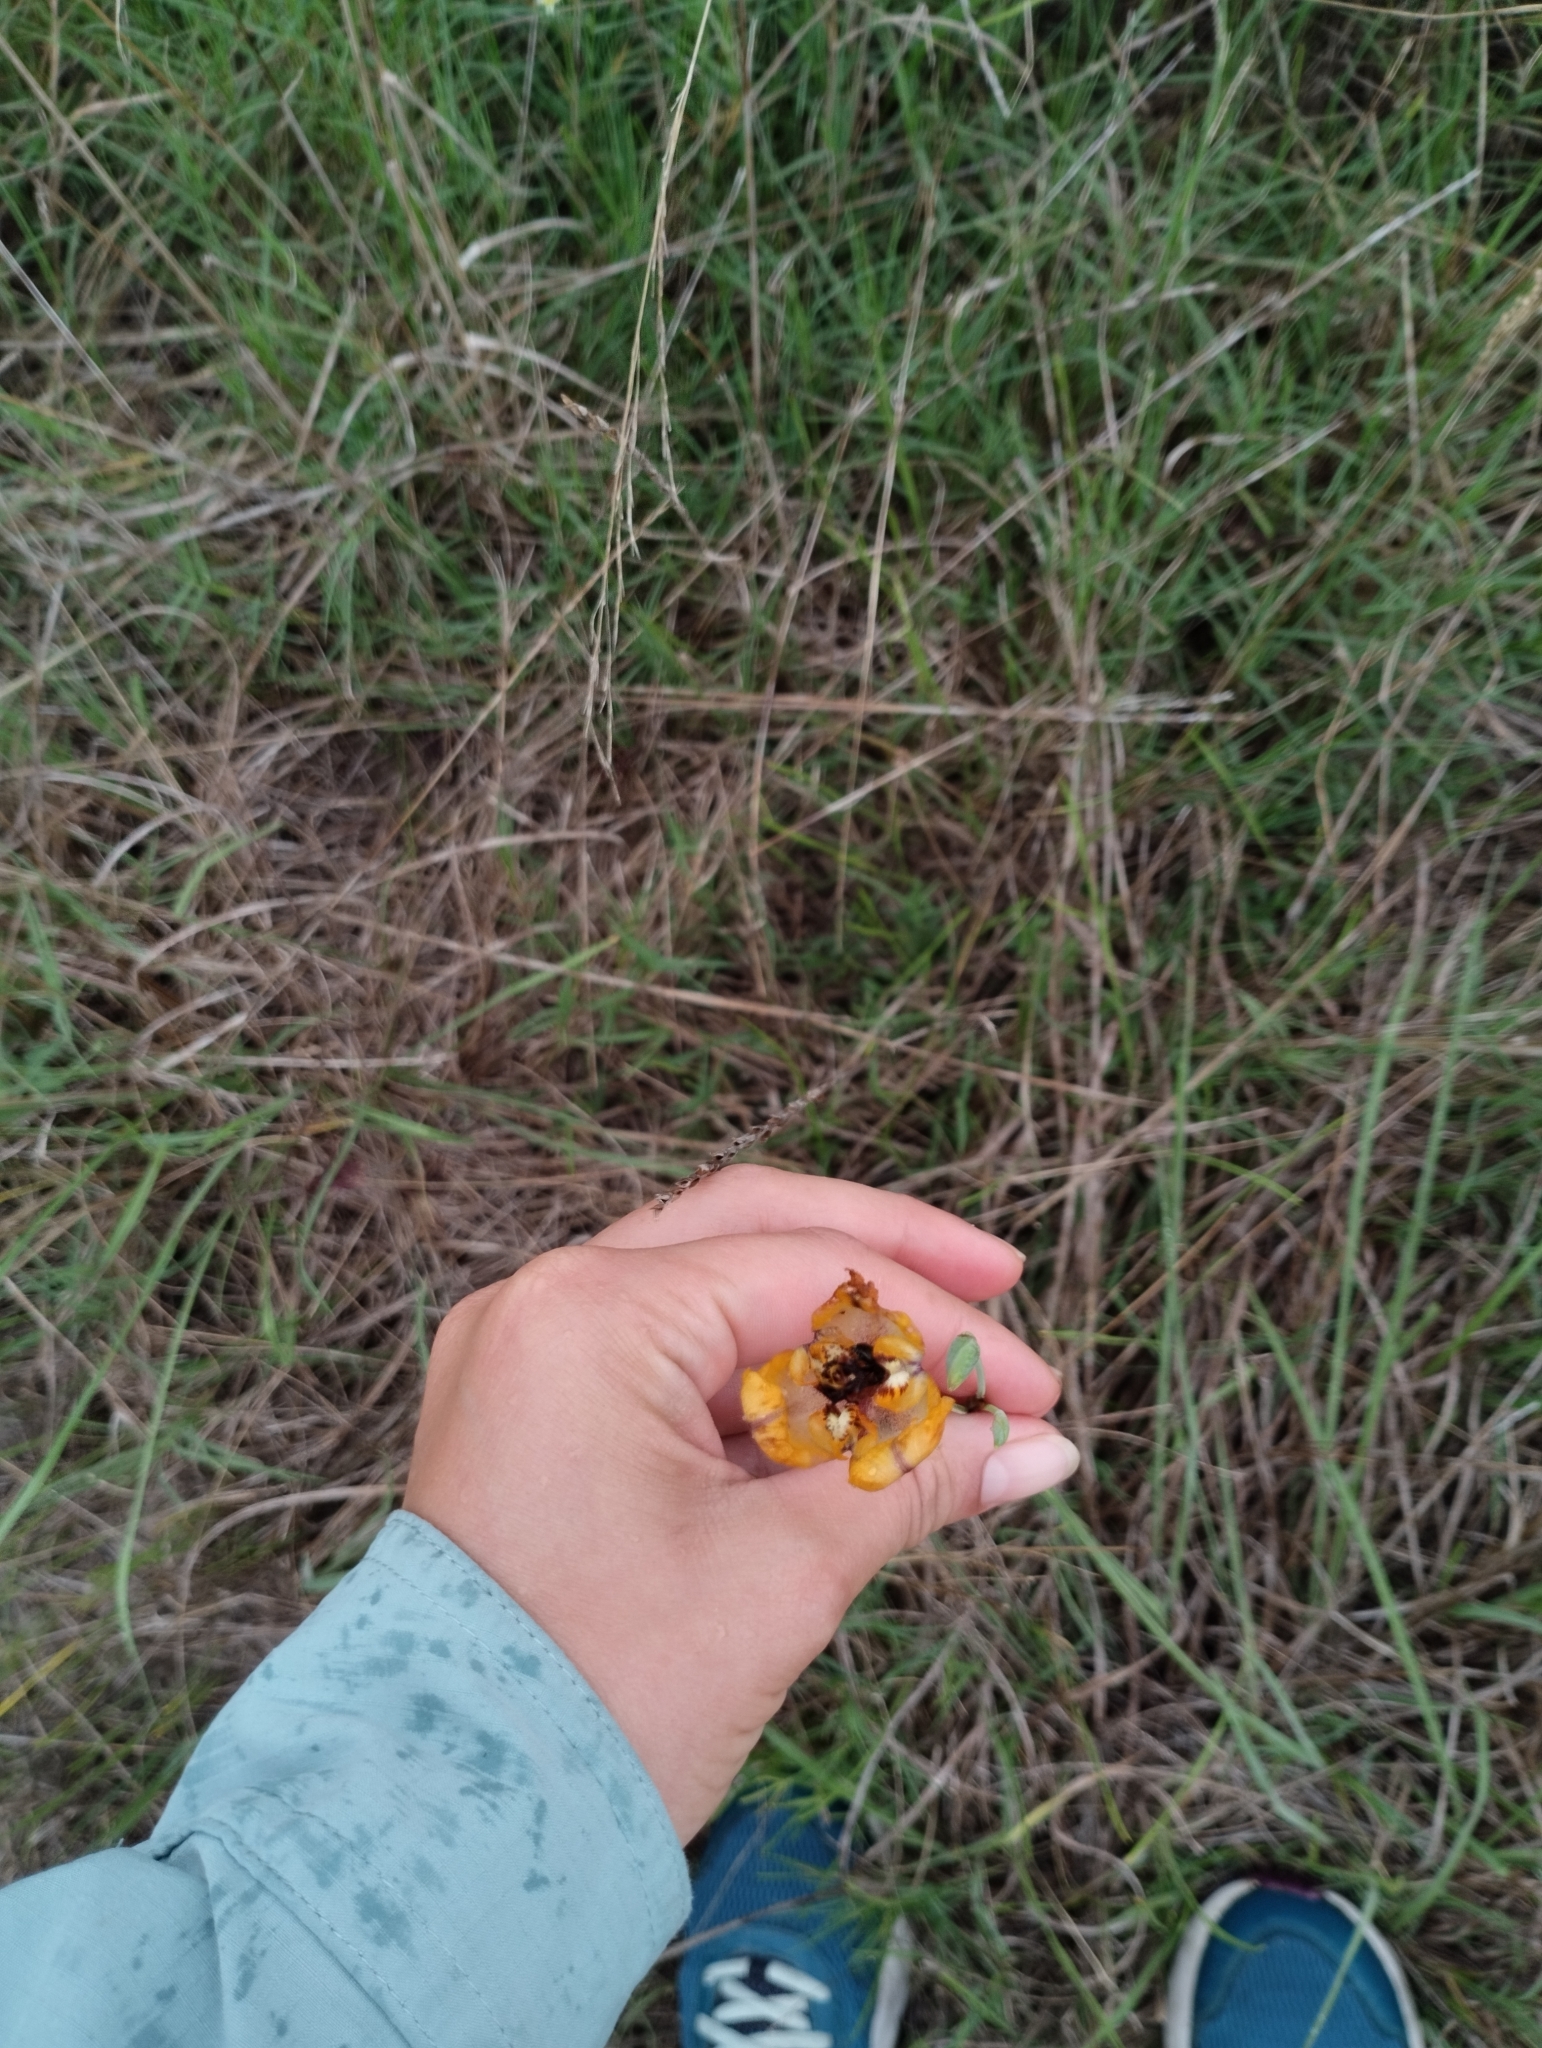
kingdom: Plantae
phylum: Tracheophyta
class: Liliopsida
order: Asparagales
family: Iridaceae
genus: Cypella
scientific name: Cypella herbertii
